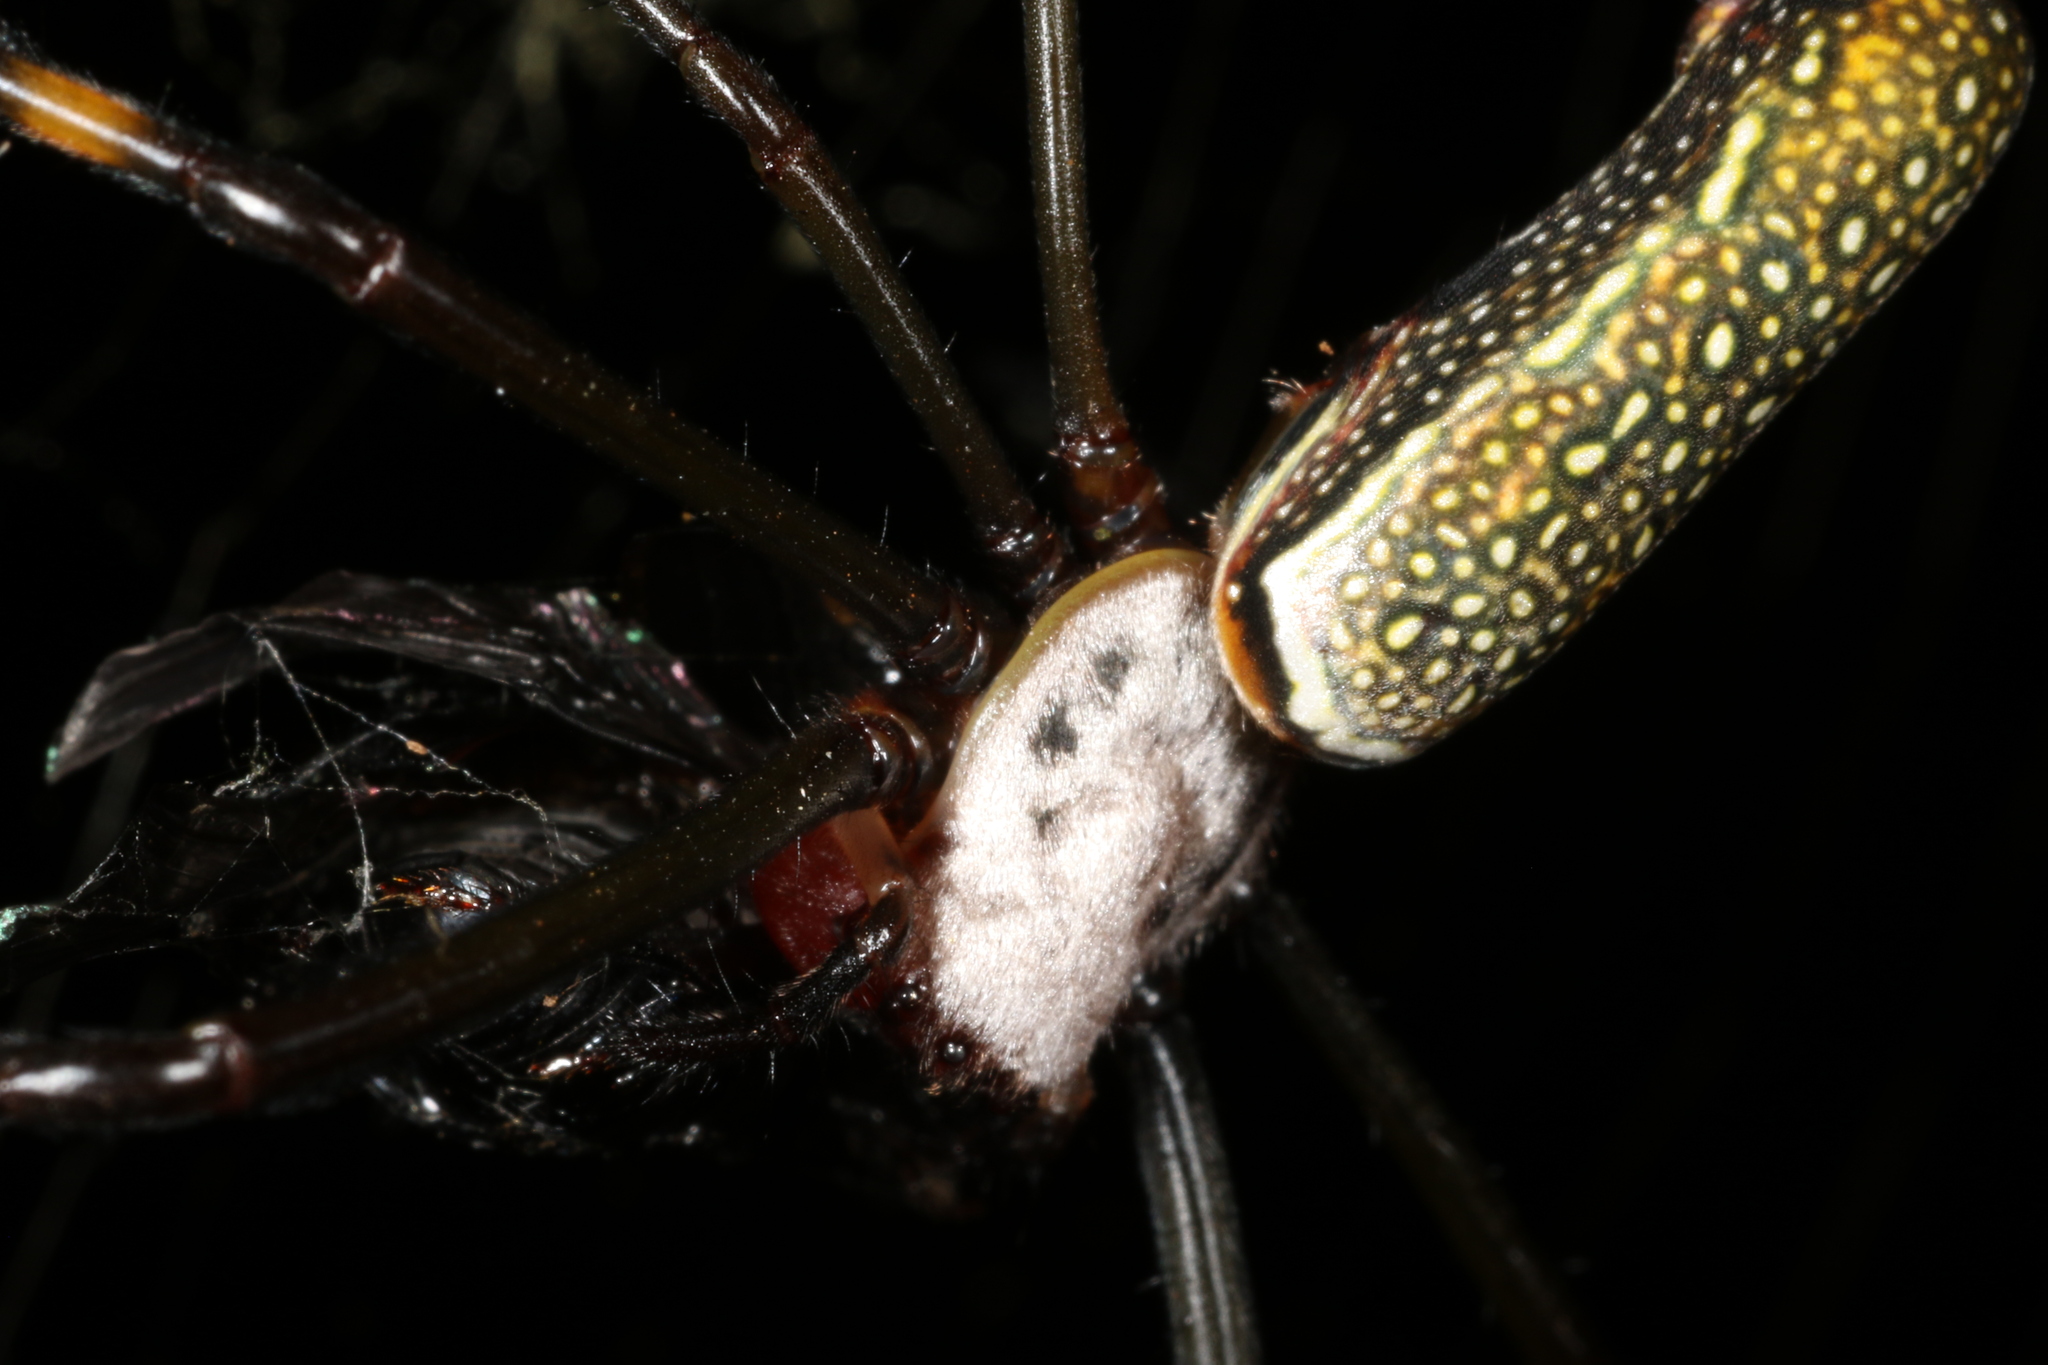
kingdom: Animalia
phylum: Arthropoda
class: Arachnida
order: Araneae
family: Araneidae
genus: Trichonephila
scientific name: Trichonephila clavipes
